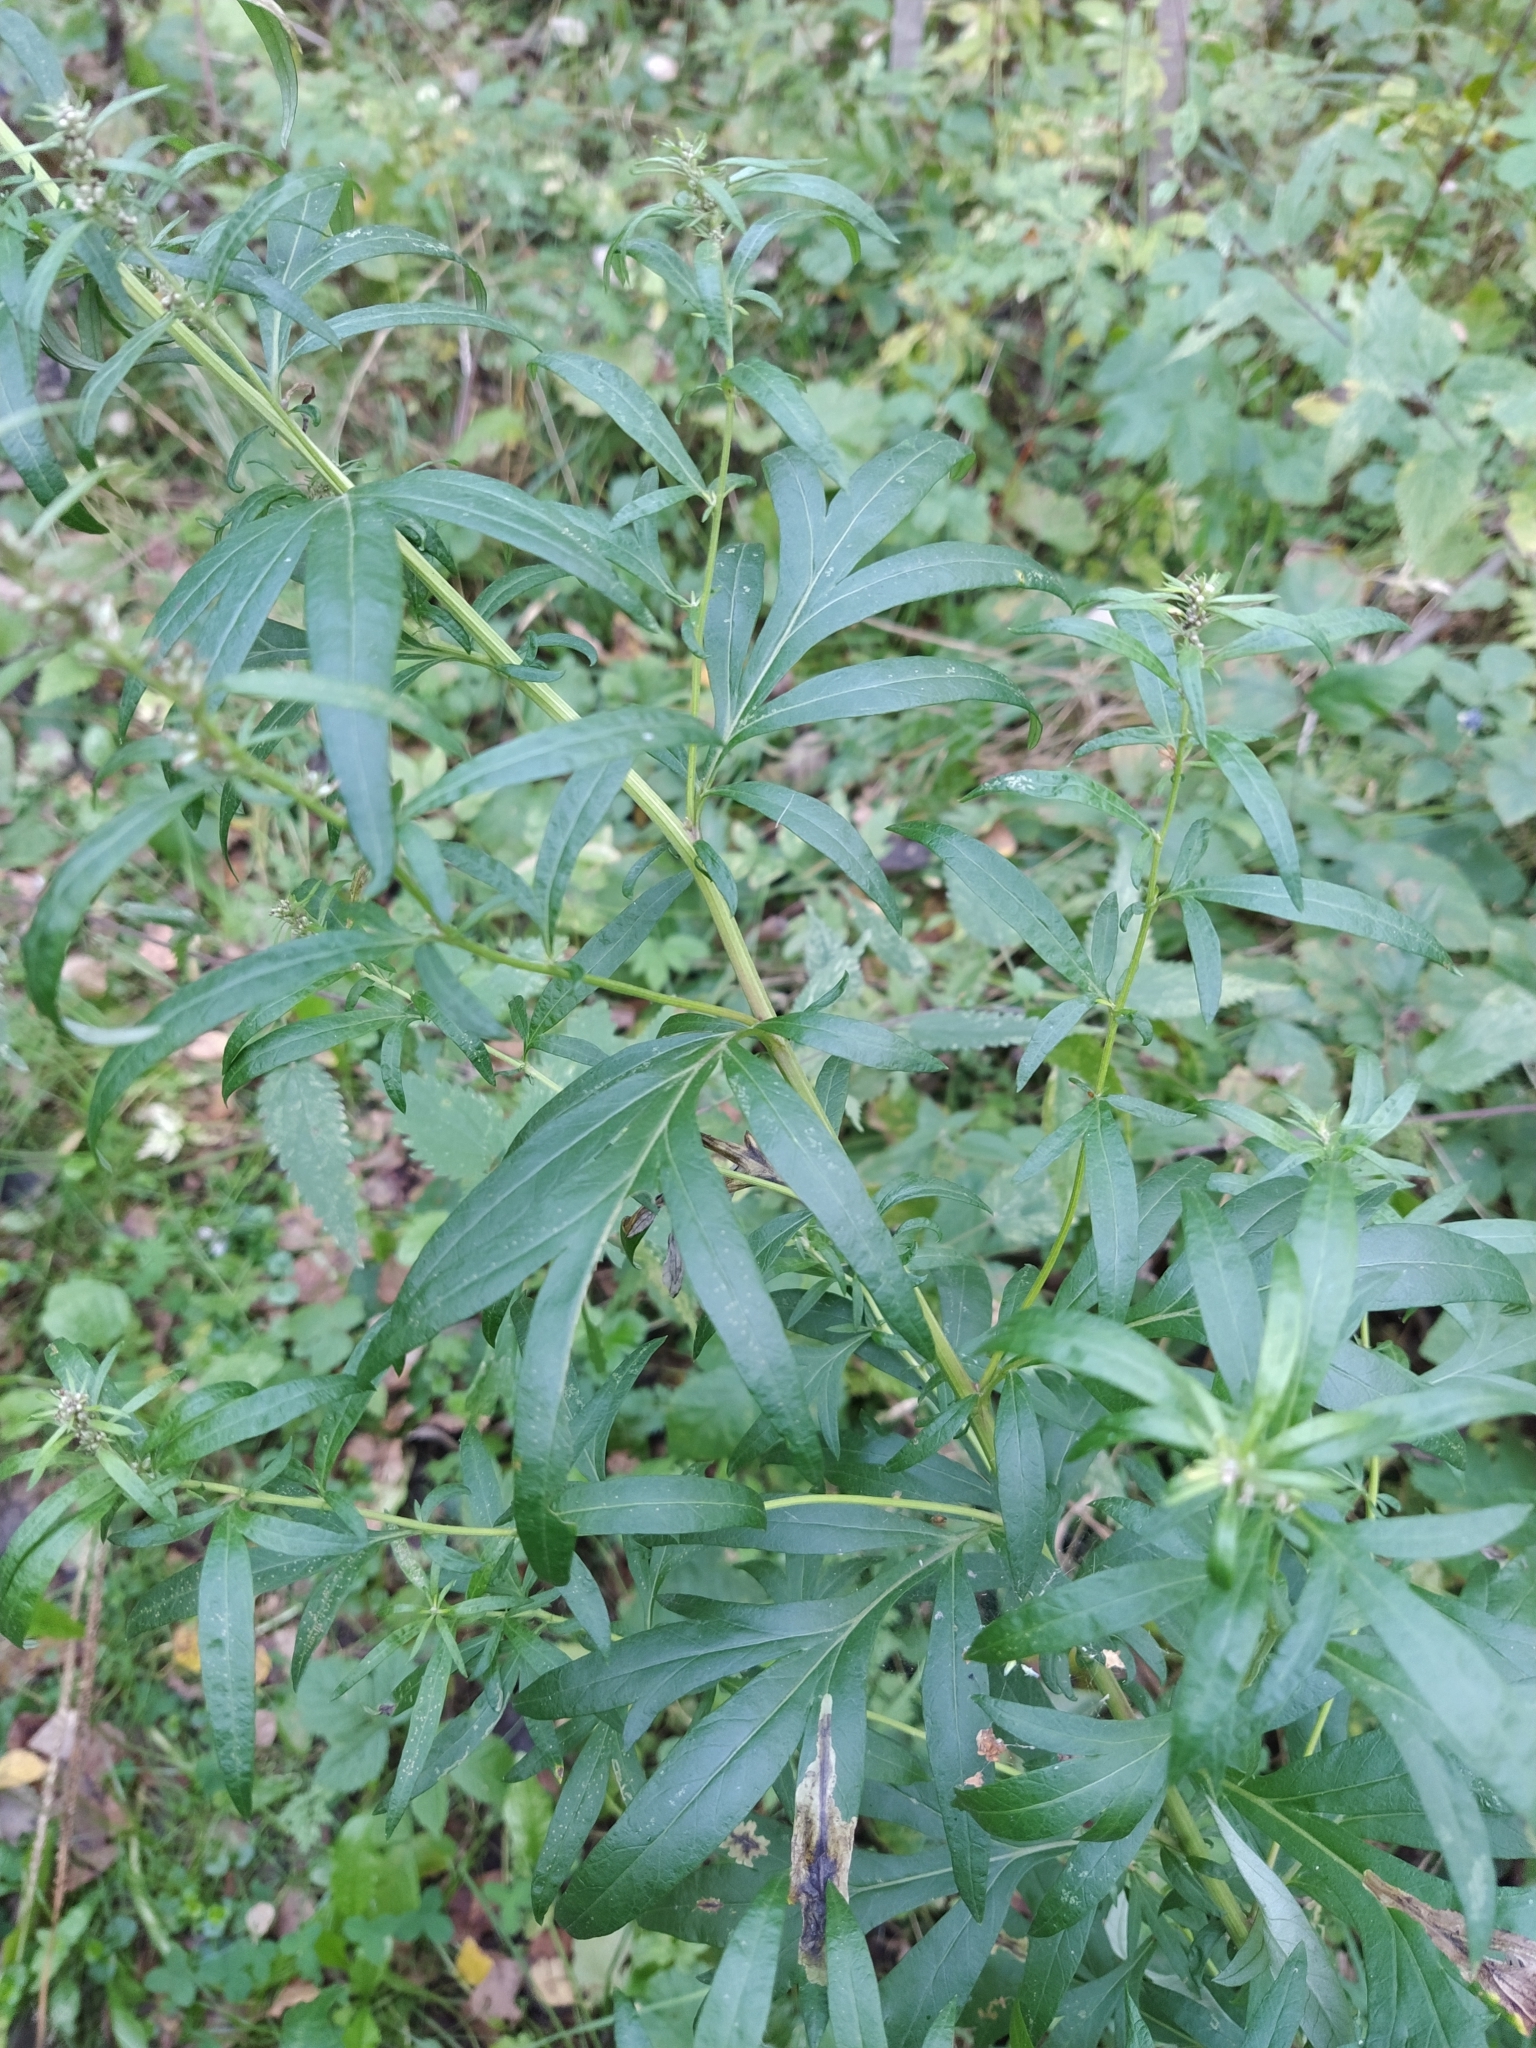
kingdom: Plantae
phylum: Tracheophyta
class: Magnoliopsida
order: Asterales
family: Asteraceae
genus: Artemisia
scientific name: Artemisia vulgaris
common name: Mugwort
